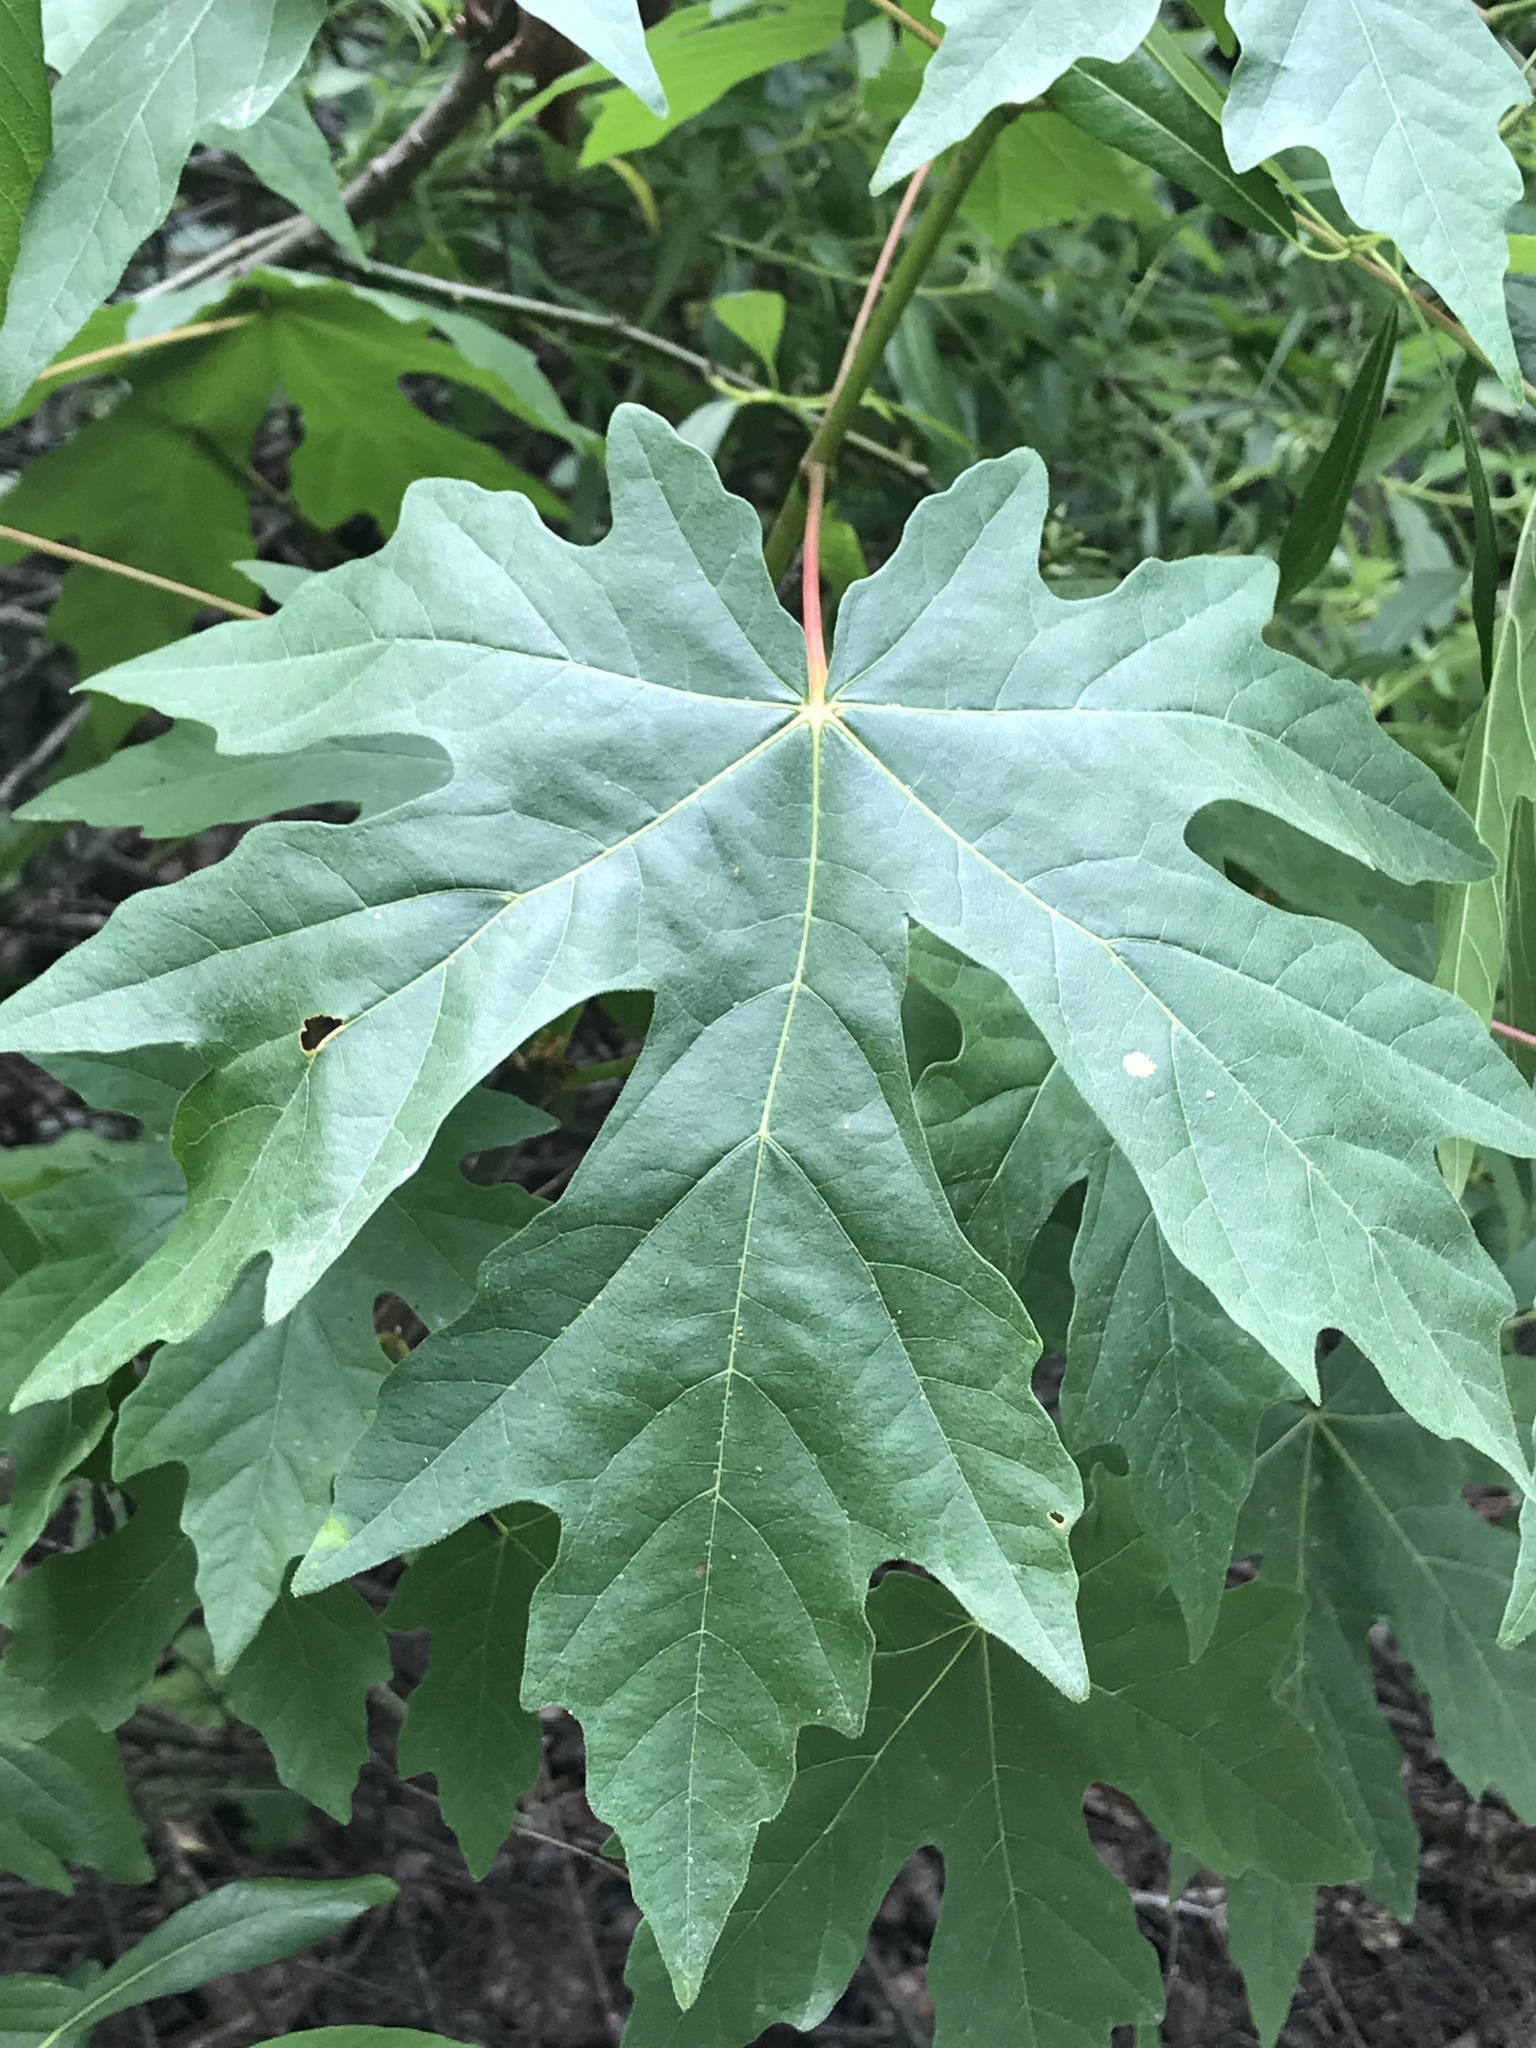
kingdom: Plantae
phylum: Tracheophyta
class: Magnoliopsida
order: Sapindales
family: Sapindaceae
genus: Acer
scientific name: Acer macrophyllum
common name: Oregon maple
